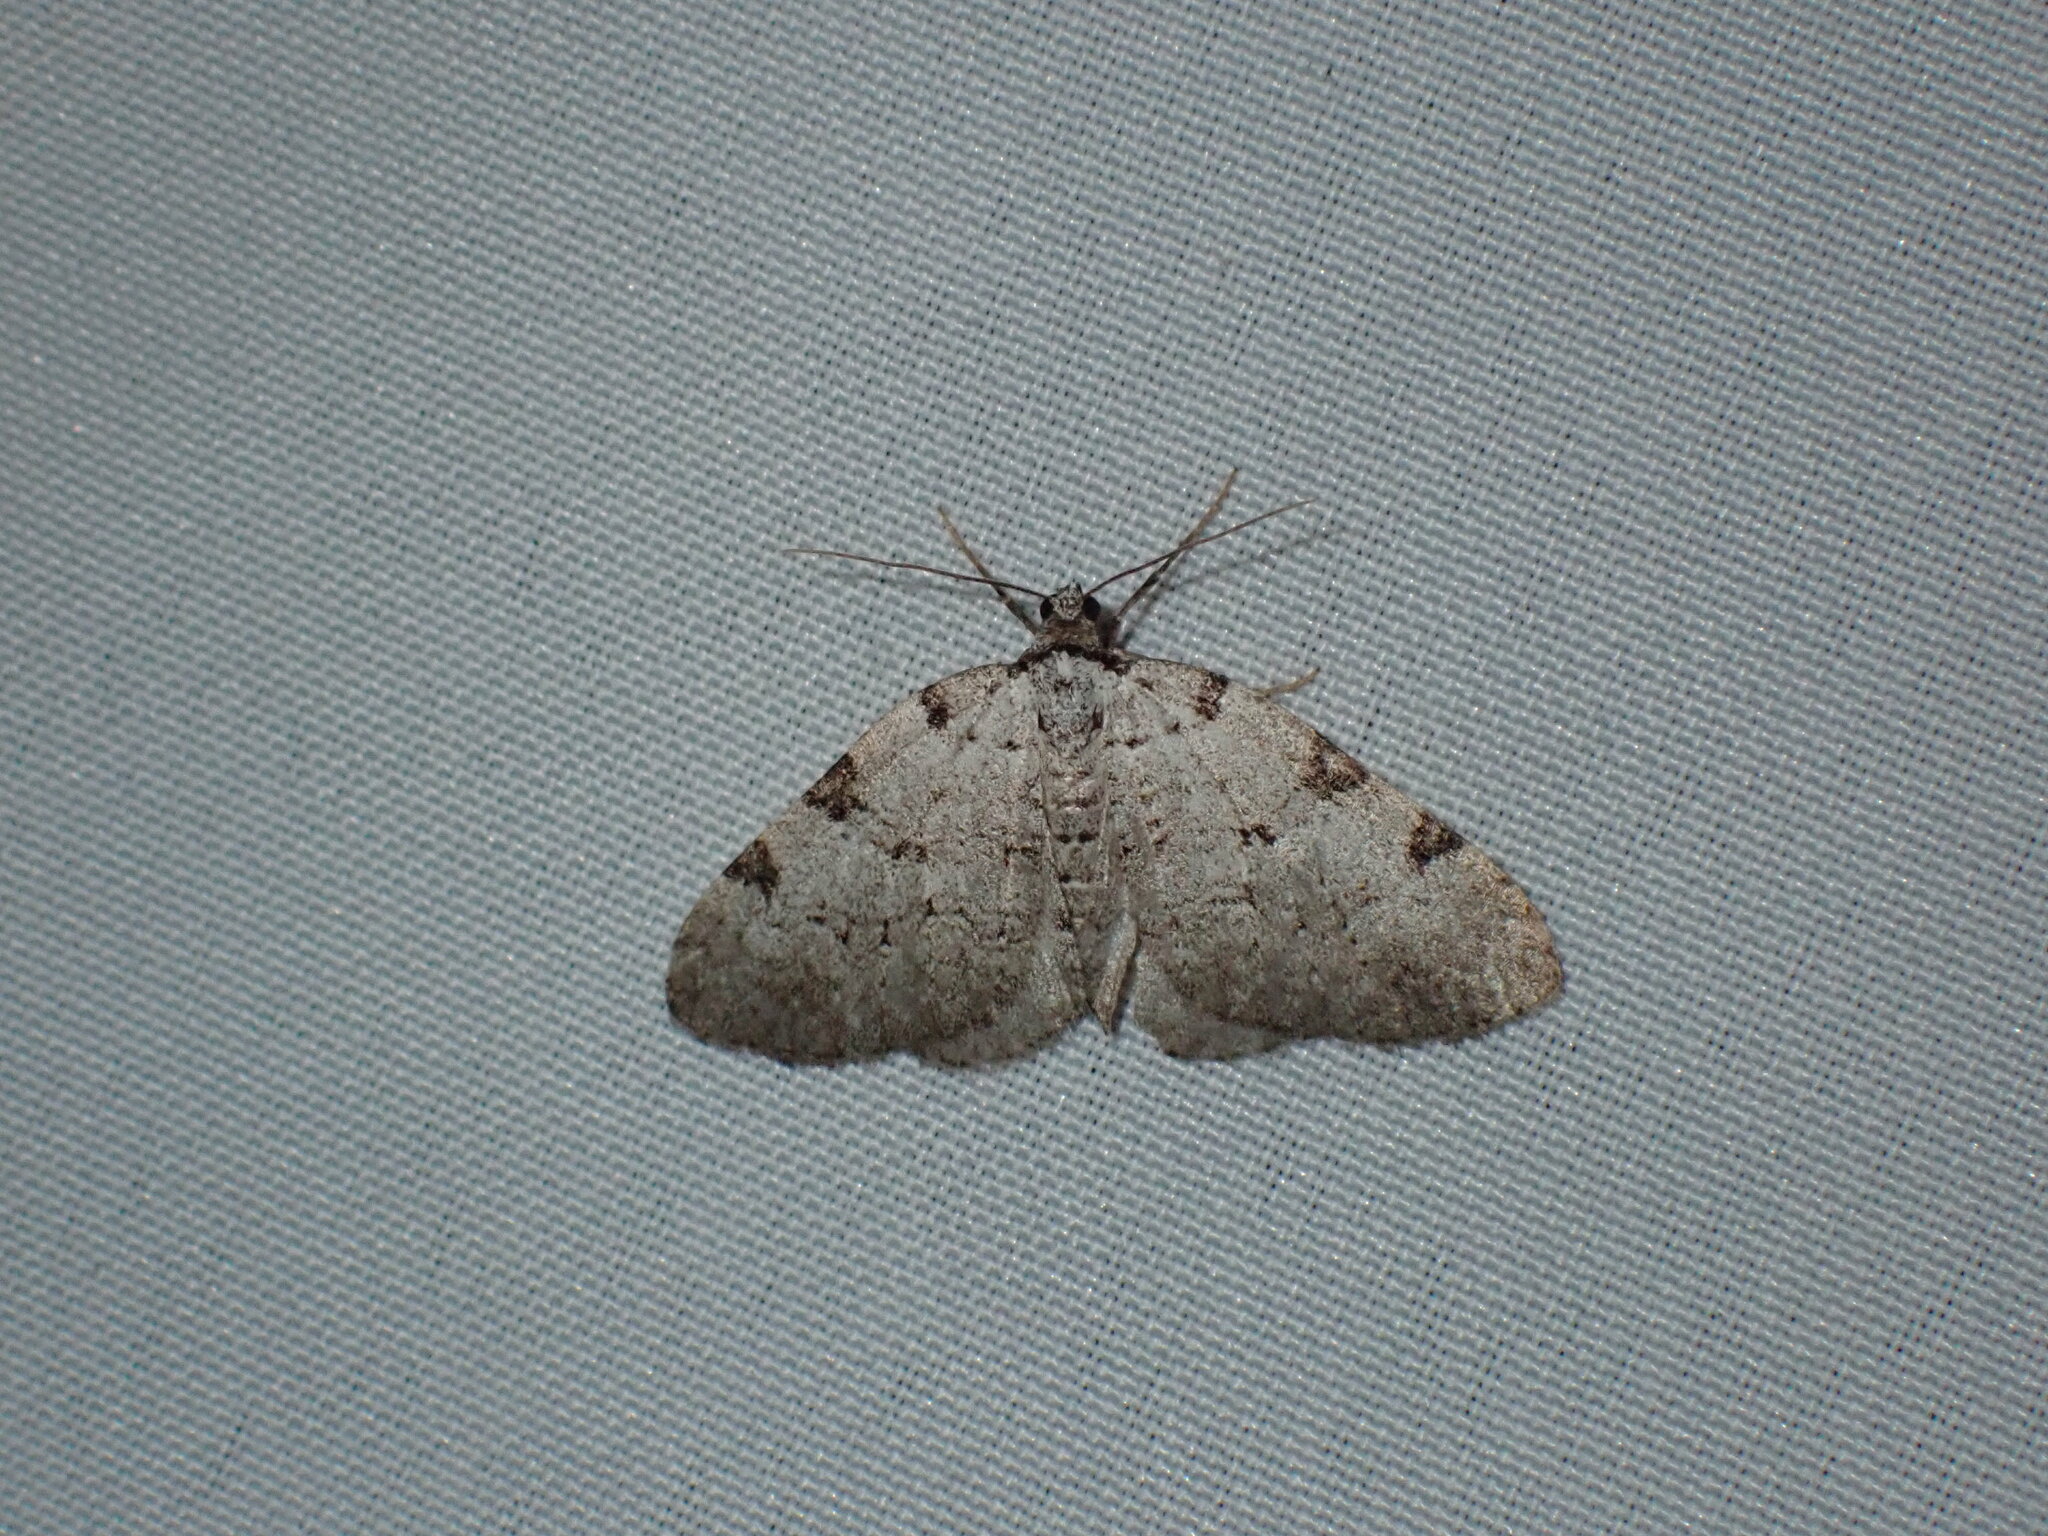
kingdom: Animalia
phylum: Arthropoda
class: Insecta
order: Lepidoptera
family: Geometridae
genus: Perizoma
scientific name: Perizoma costiguttata
